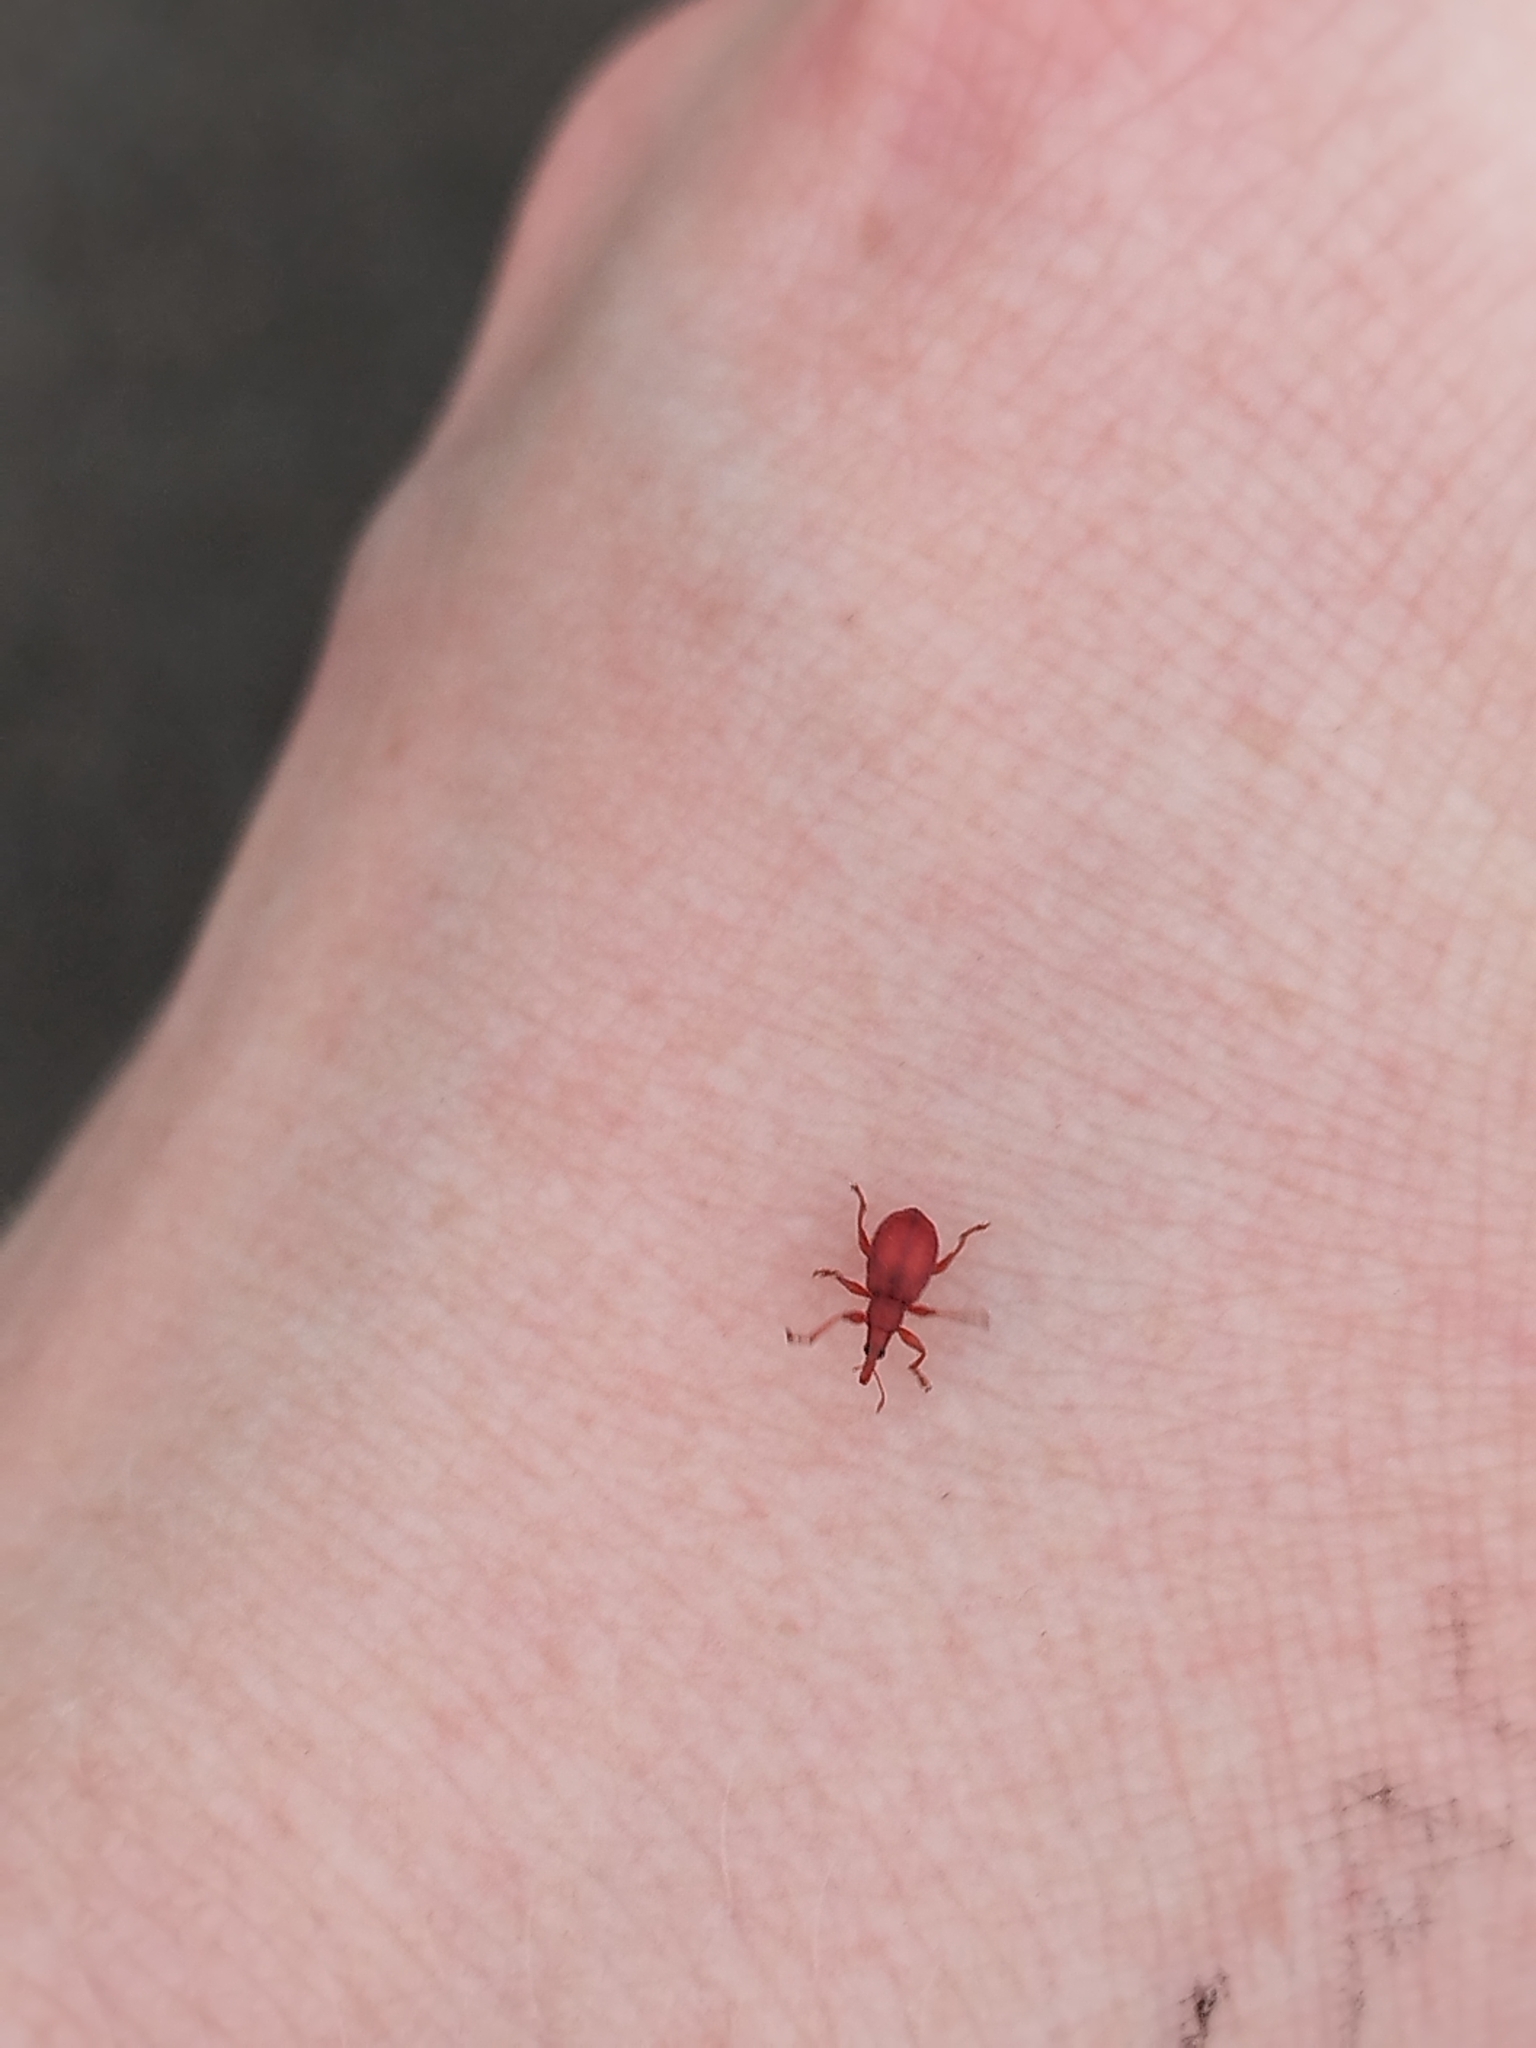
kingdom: Animalia
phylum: Arthropoda
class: Insecta
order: Coleoptera
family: Apionidae
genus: Apion
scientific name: Apion frumentarium
